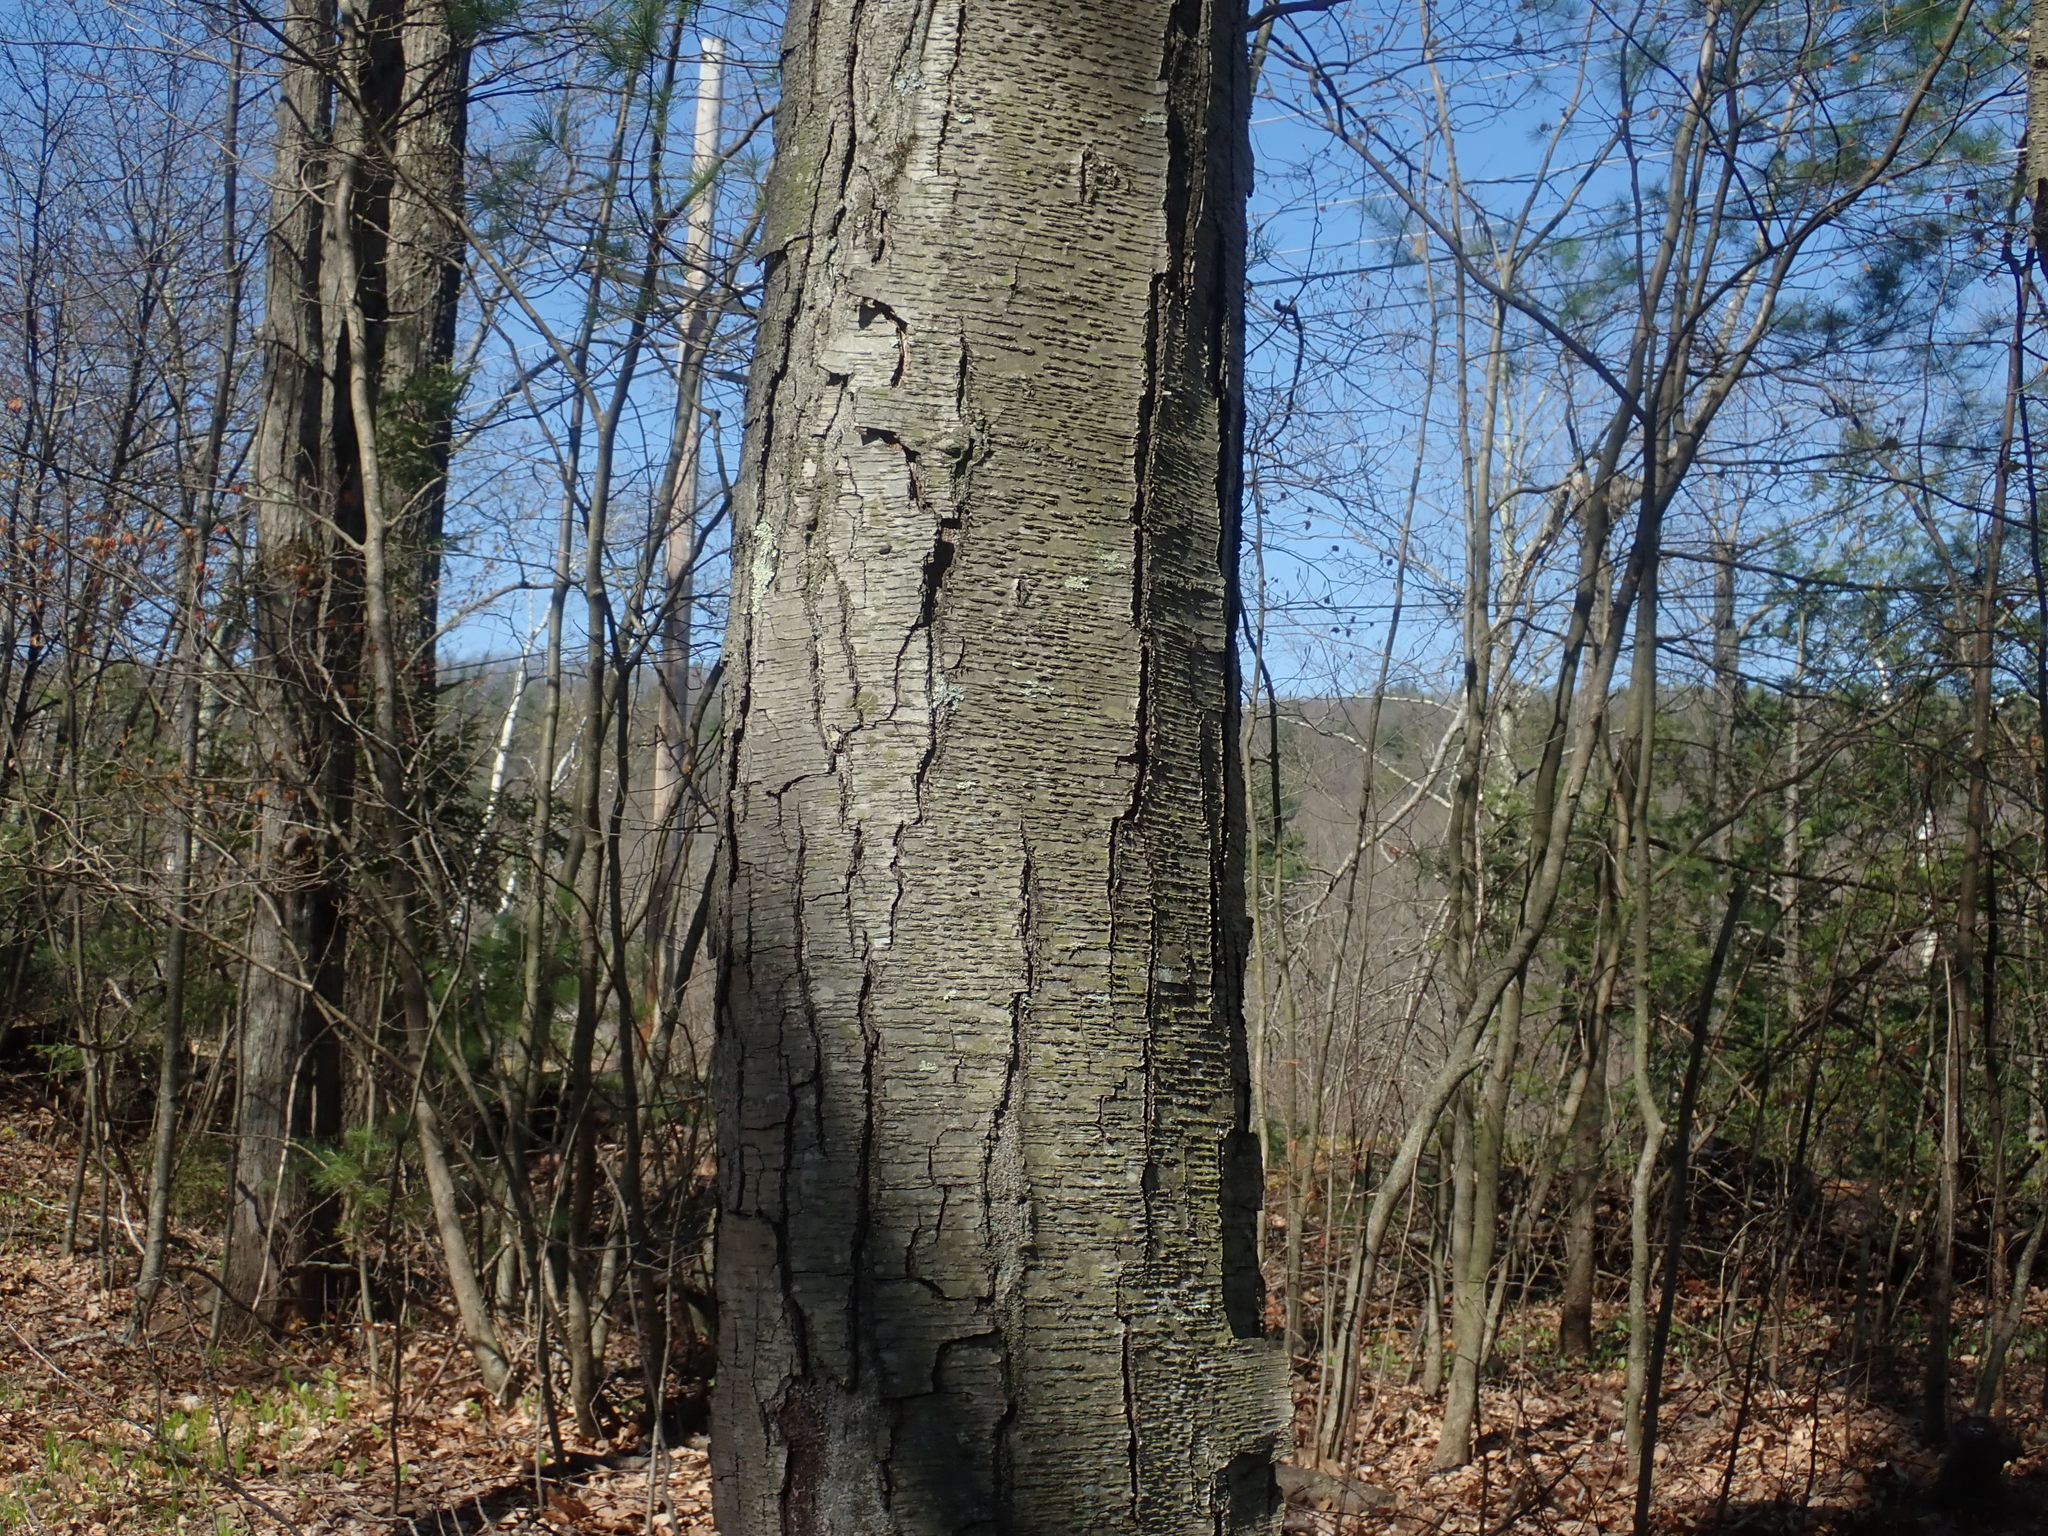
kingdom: Plantae
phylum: Tracheophyta
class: Magnoliopsida
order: Fagales
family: Betulaceae
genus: Betula
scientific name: Betula lenta
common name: Black birch
